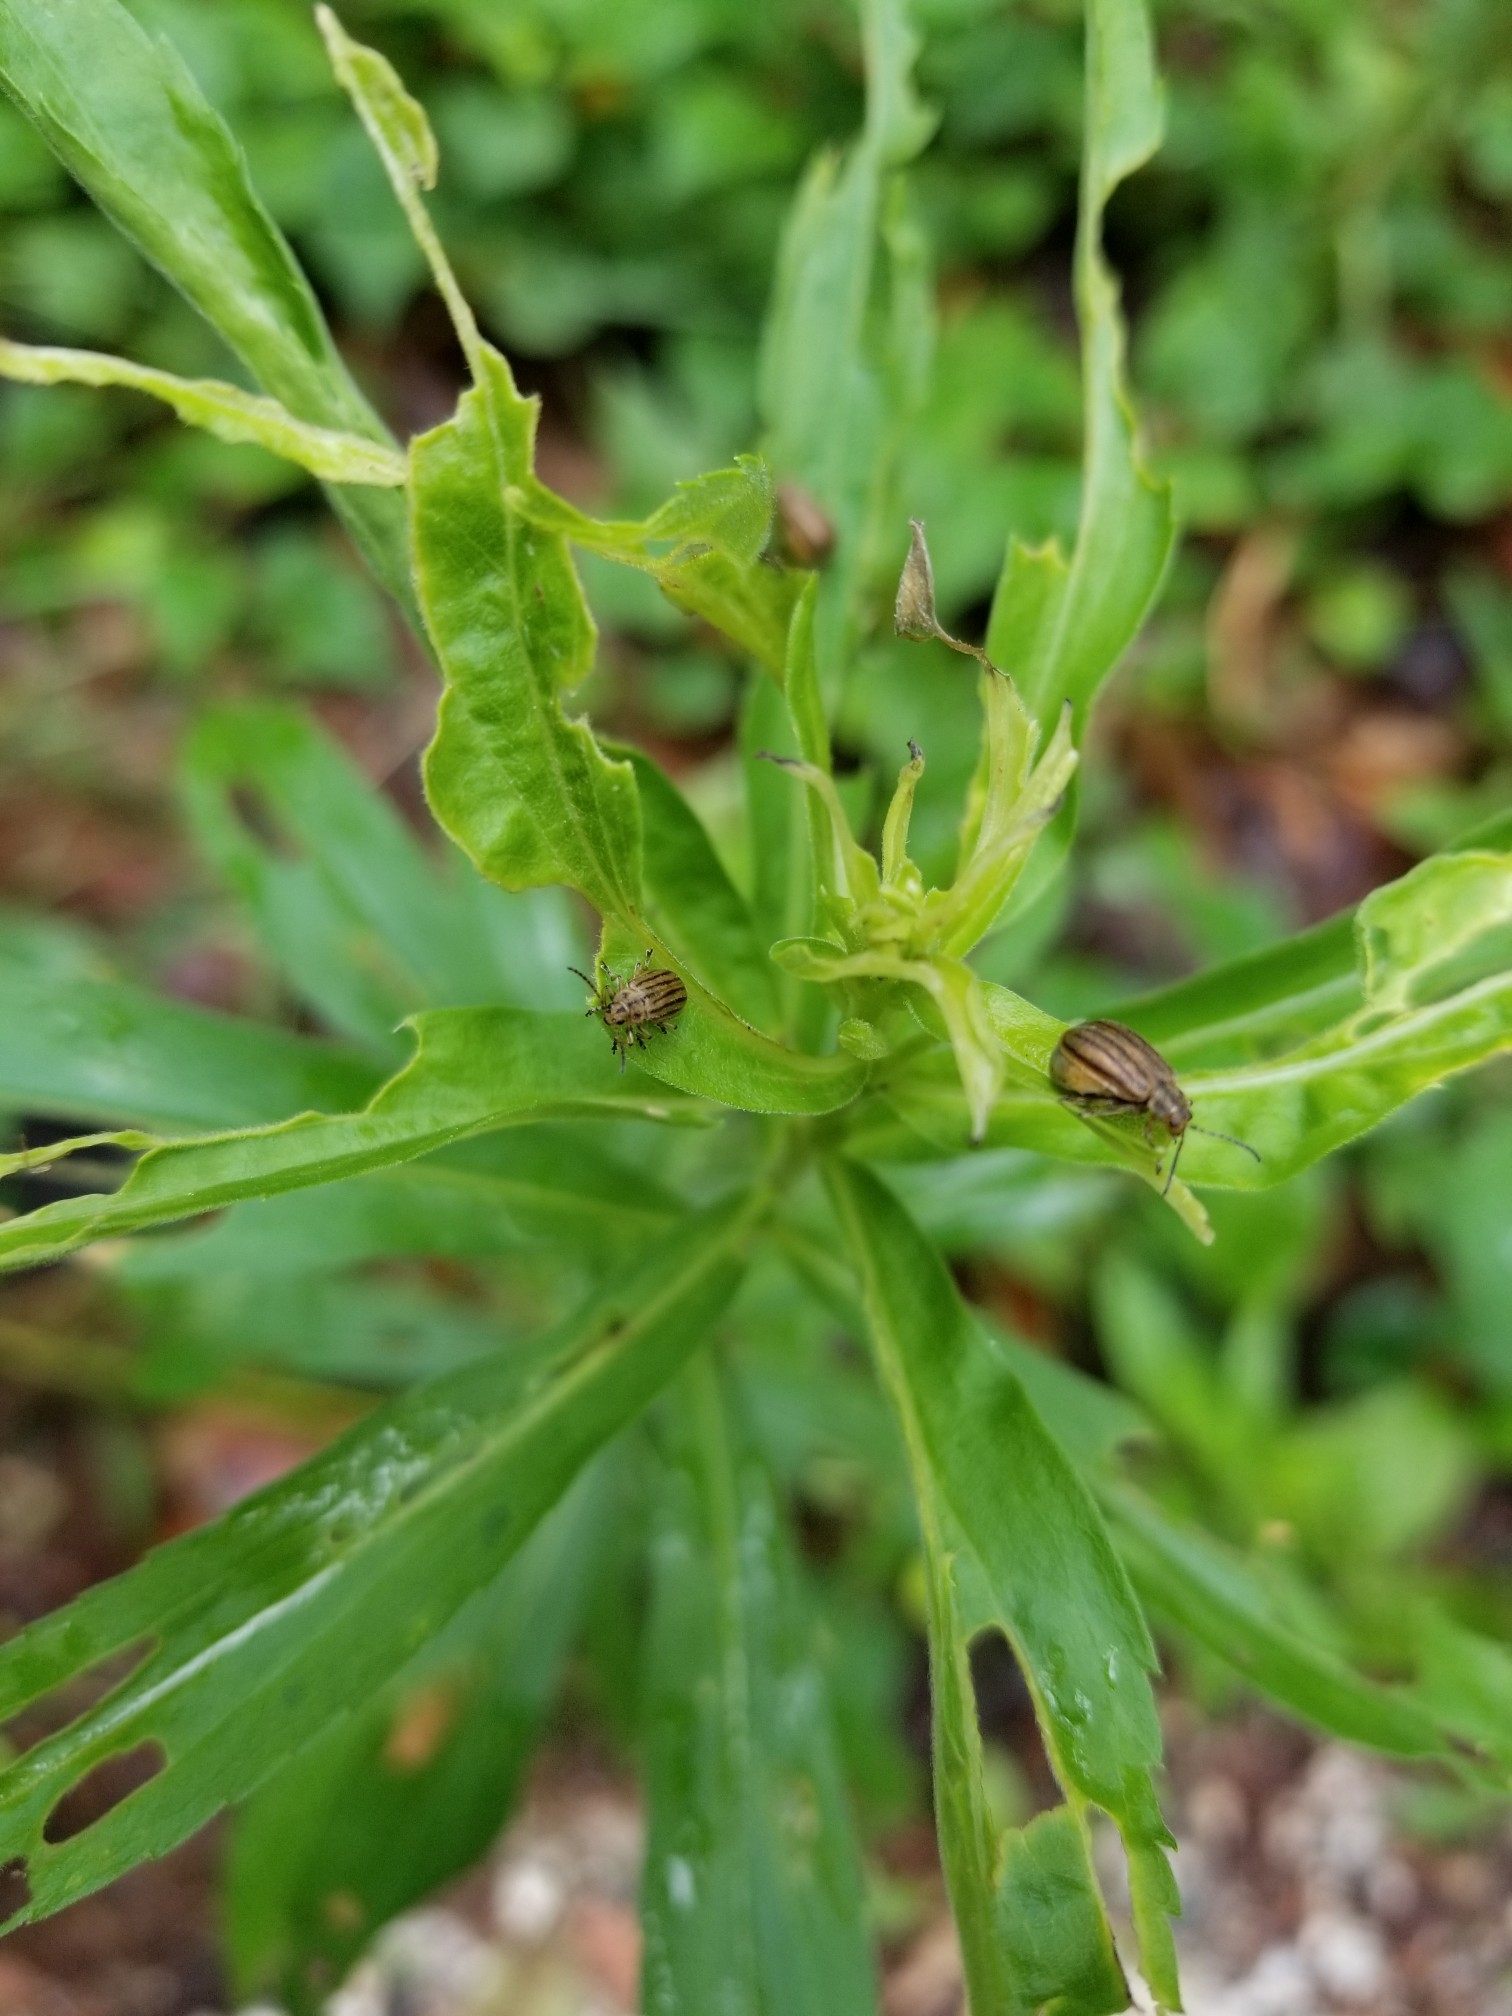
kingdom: Animalia
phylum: Arthropoda
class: Insecta
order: Coleoptera
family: Chrysomelidae
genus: Ophraella
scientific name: Ophraella conferta
